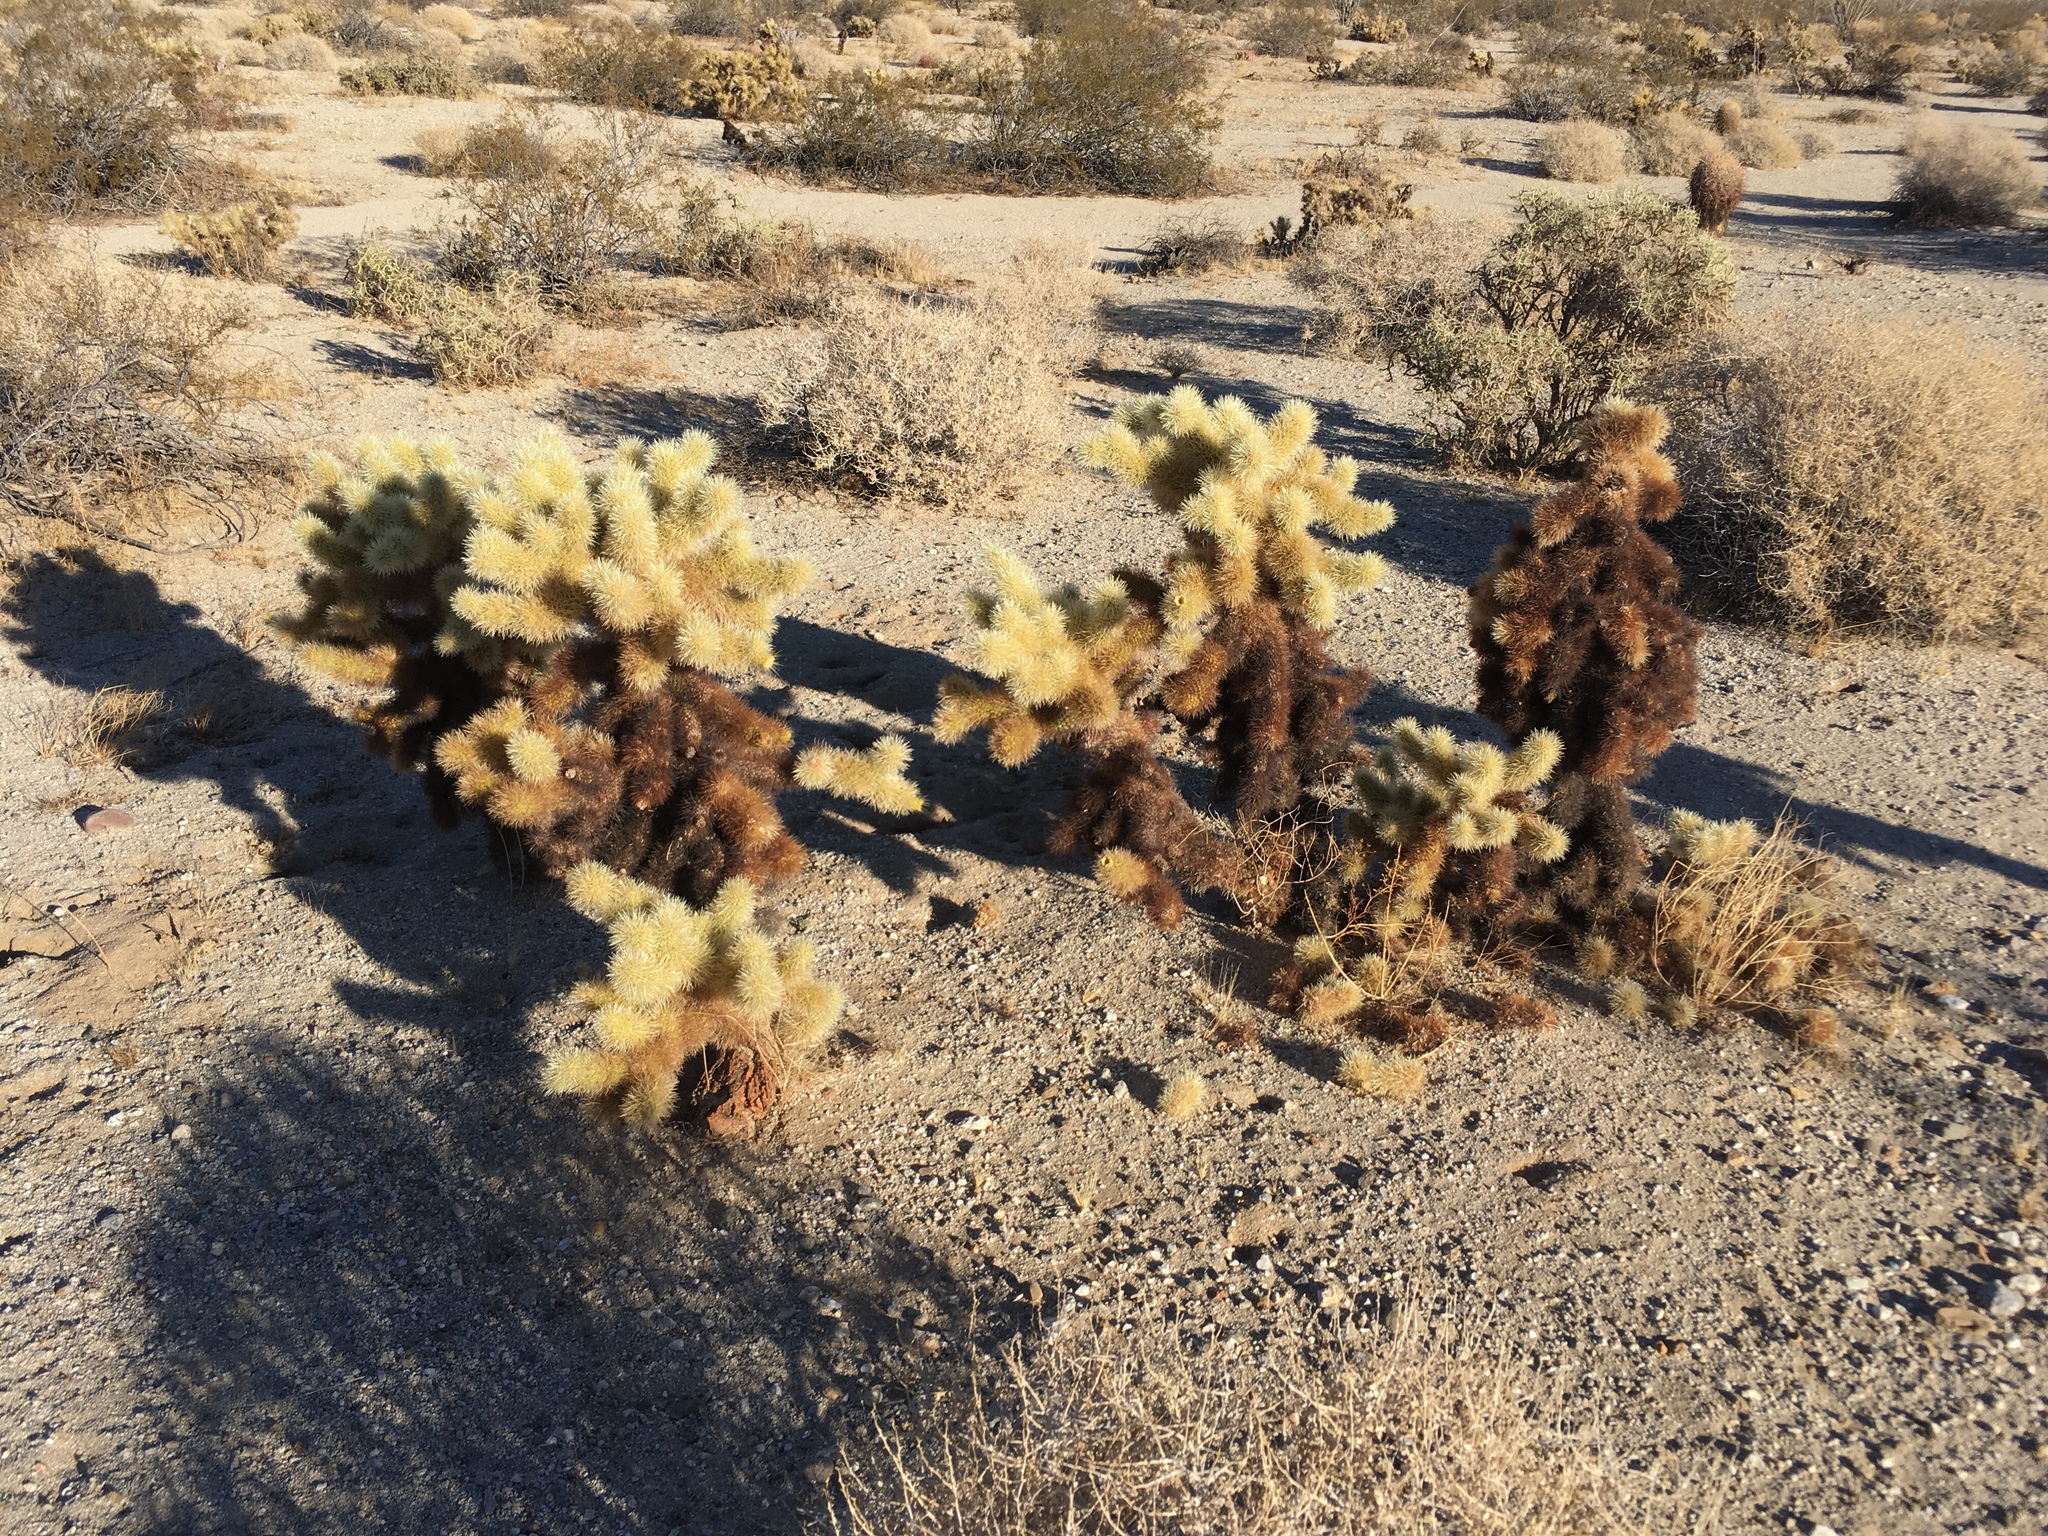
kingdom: Plantae
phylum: Tracheophyta
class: Magnoliopsida
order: Caryophyllales
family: Cactaceae
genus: Cylindropuntia
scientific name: Cylindropuntia fosbergii
